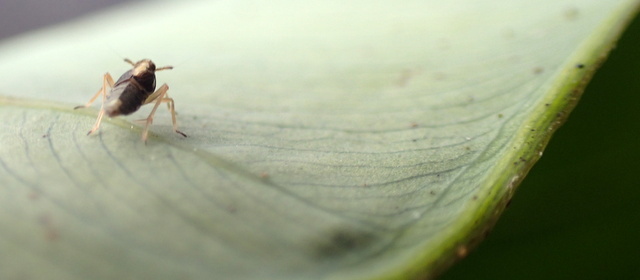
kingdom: Animalia
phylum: Arthropoda
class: Insecta
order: Hemiptera
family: Delphacidae
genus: Tarophagus
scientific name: Tarophagus colocasiae
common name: Taro planthopper
